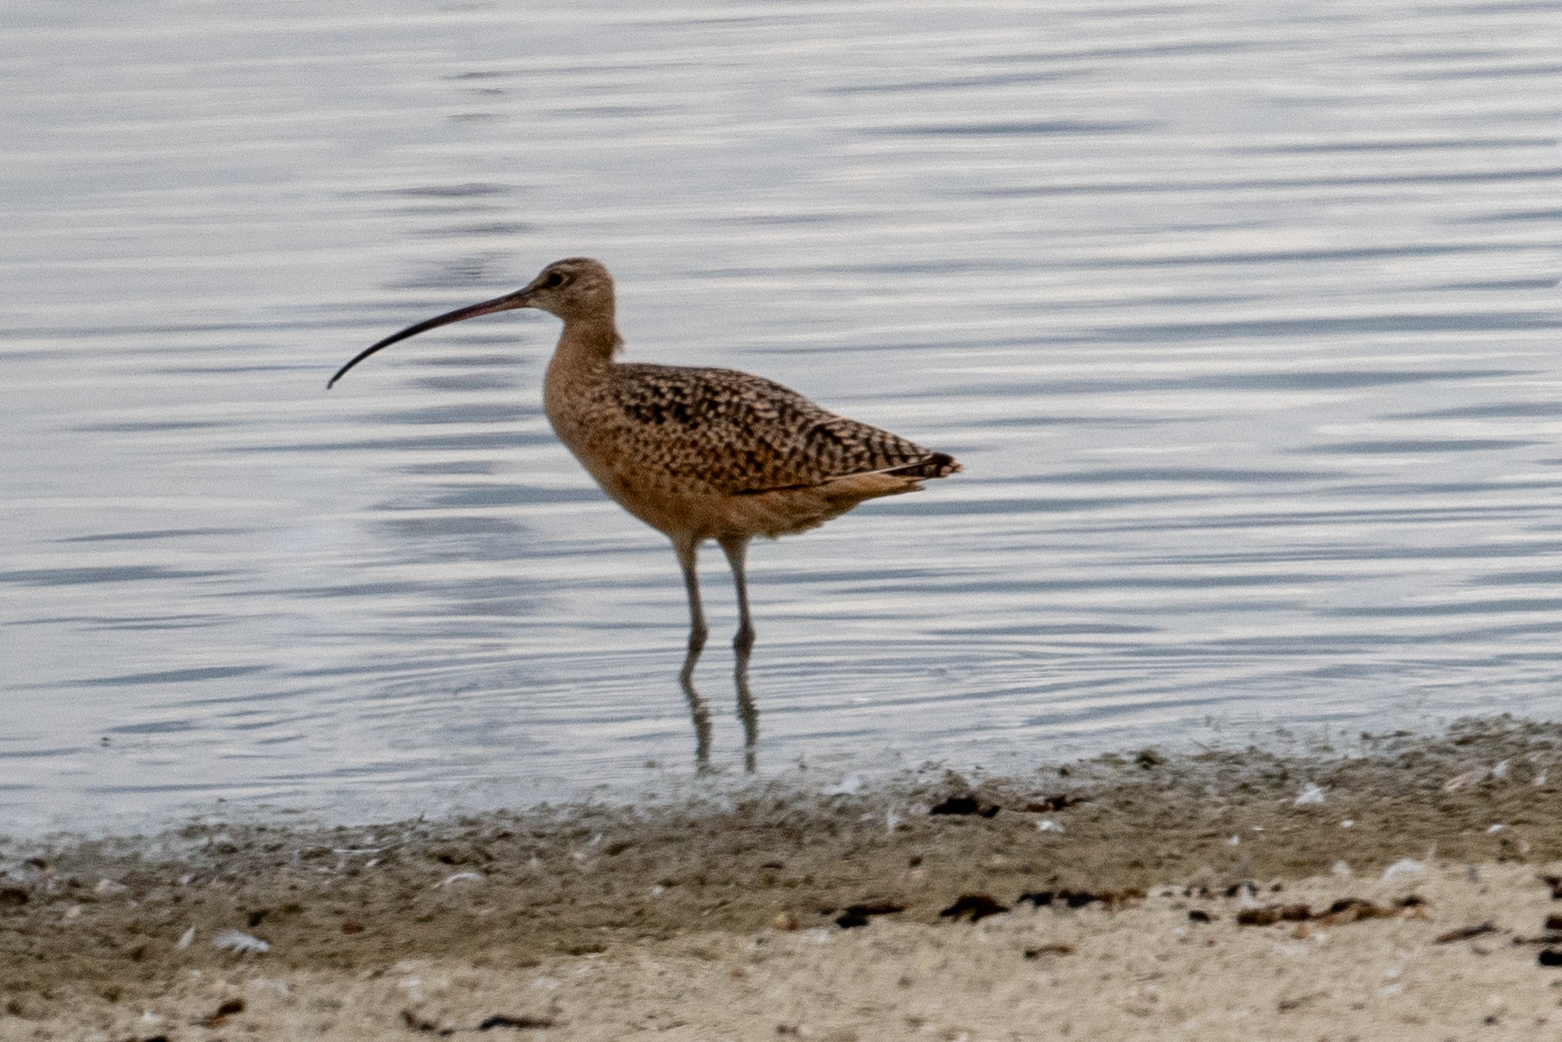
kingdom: Animalia
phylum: Chordata
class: Aves
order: Charadriiformes
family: Scolopacidae
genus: Numenius
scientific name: Numenius americanus
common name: Long-billed curlew
